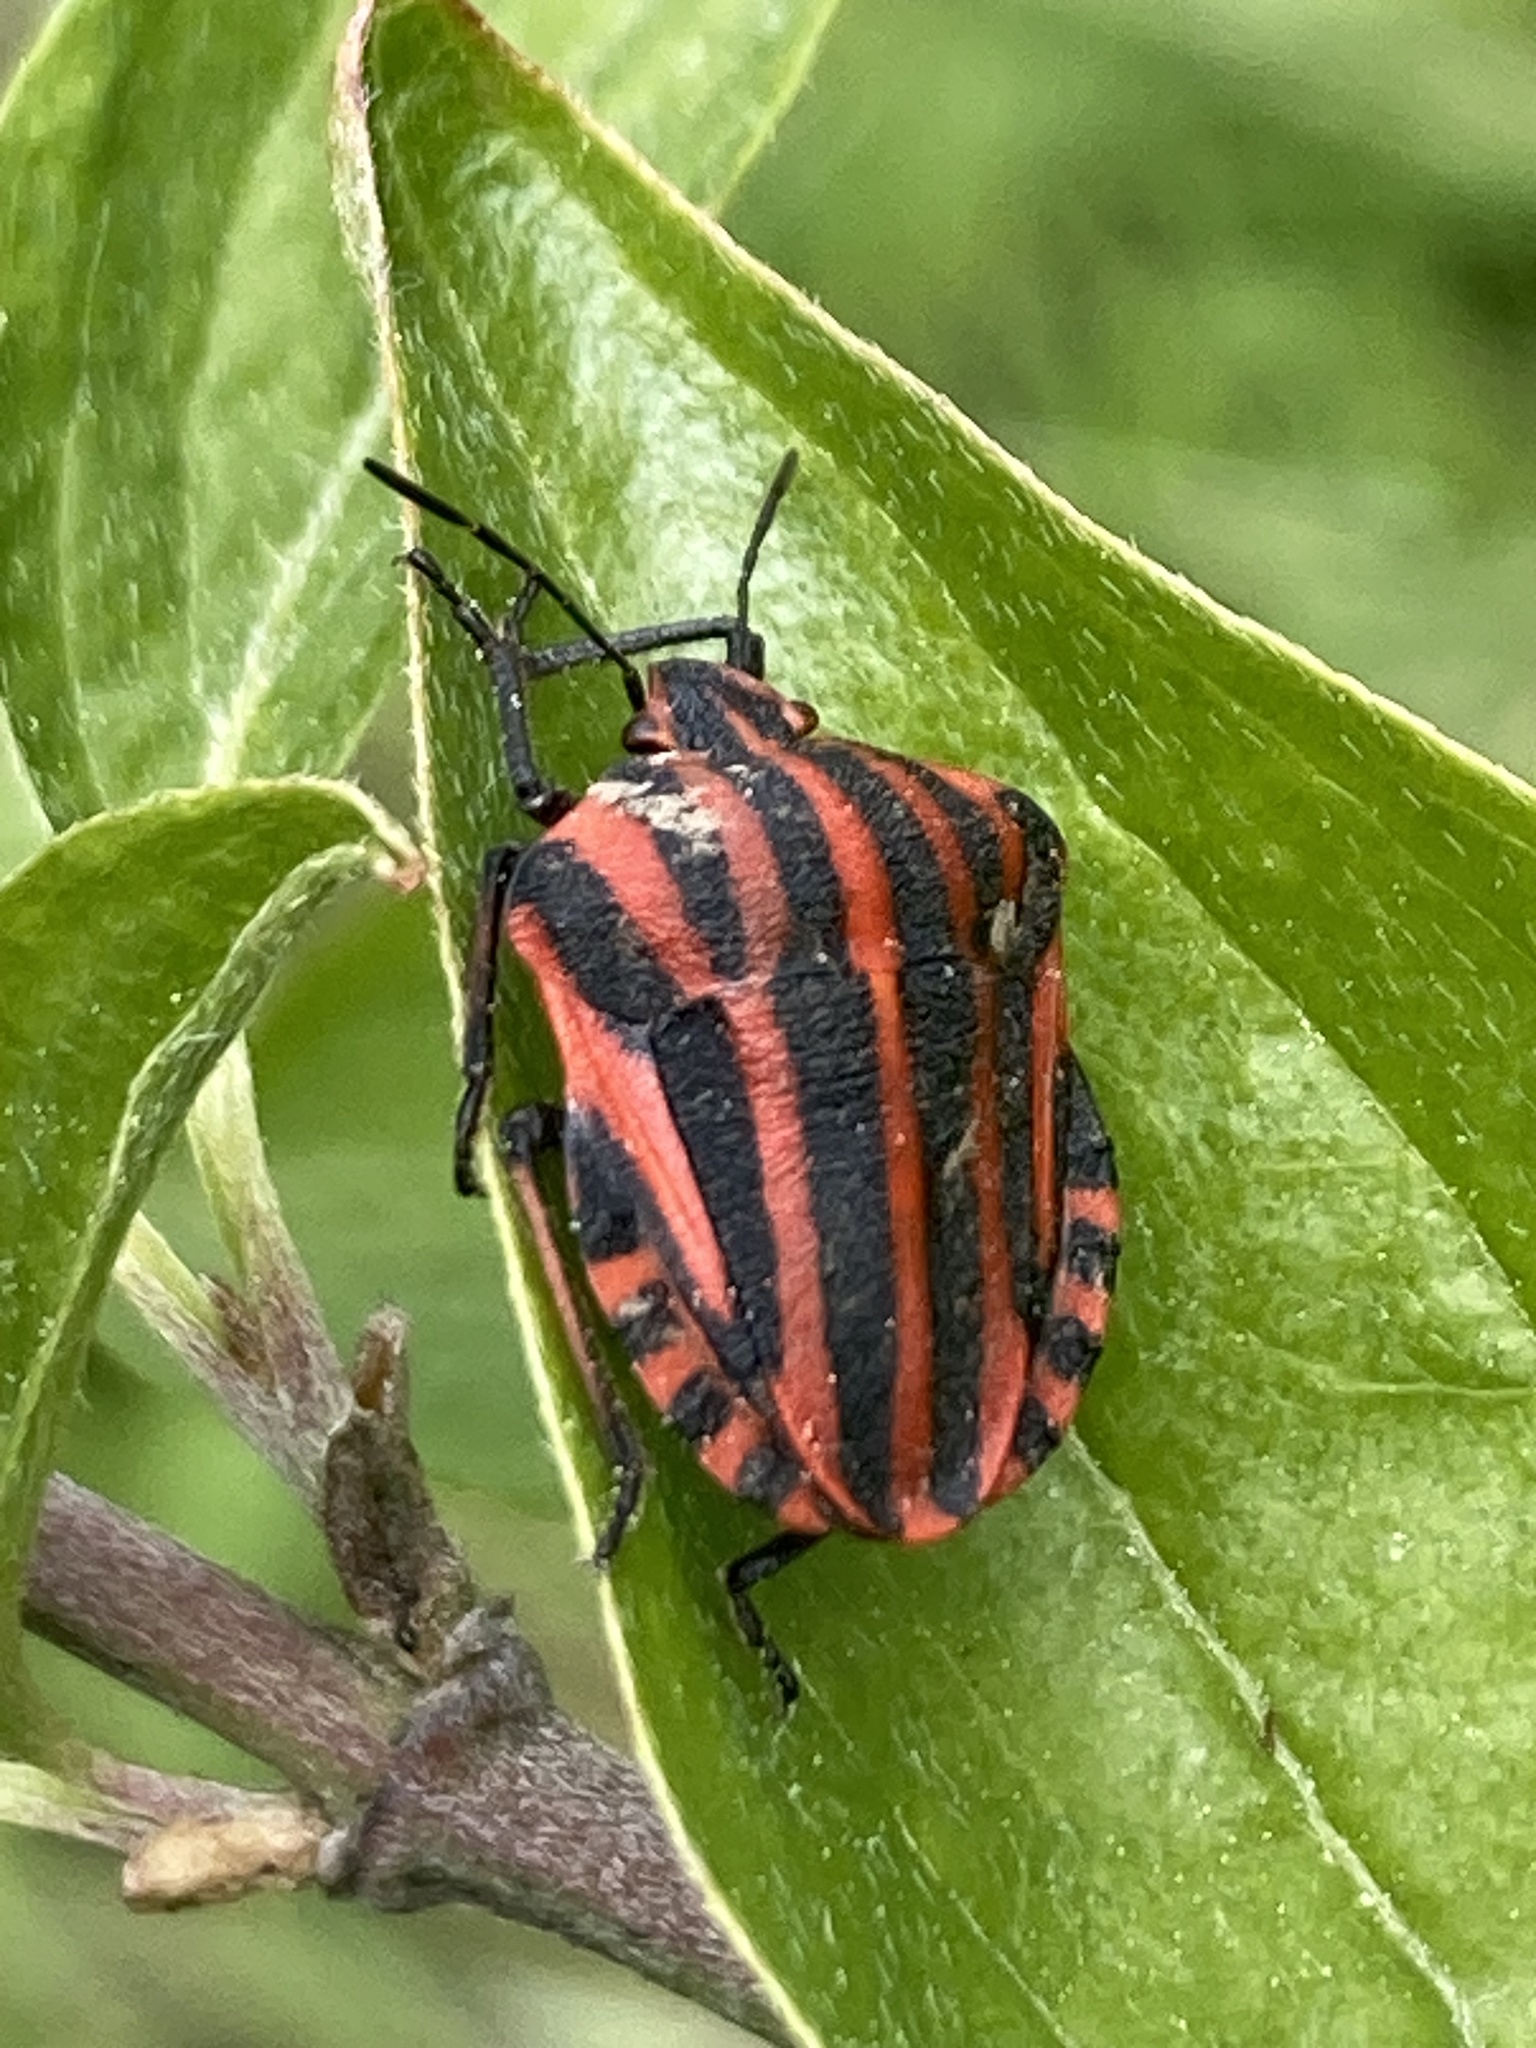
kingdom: Animalia
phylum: Arthropoda
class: Insecta
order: Hemiptera
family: Pentatomidae
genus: Graphosoma
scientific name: Graphosoma italicum
